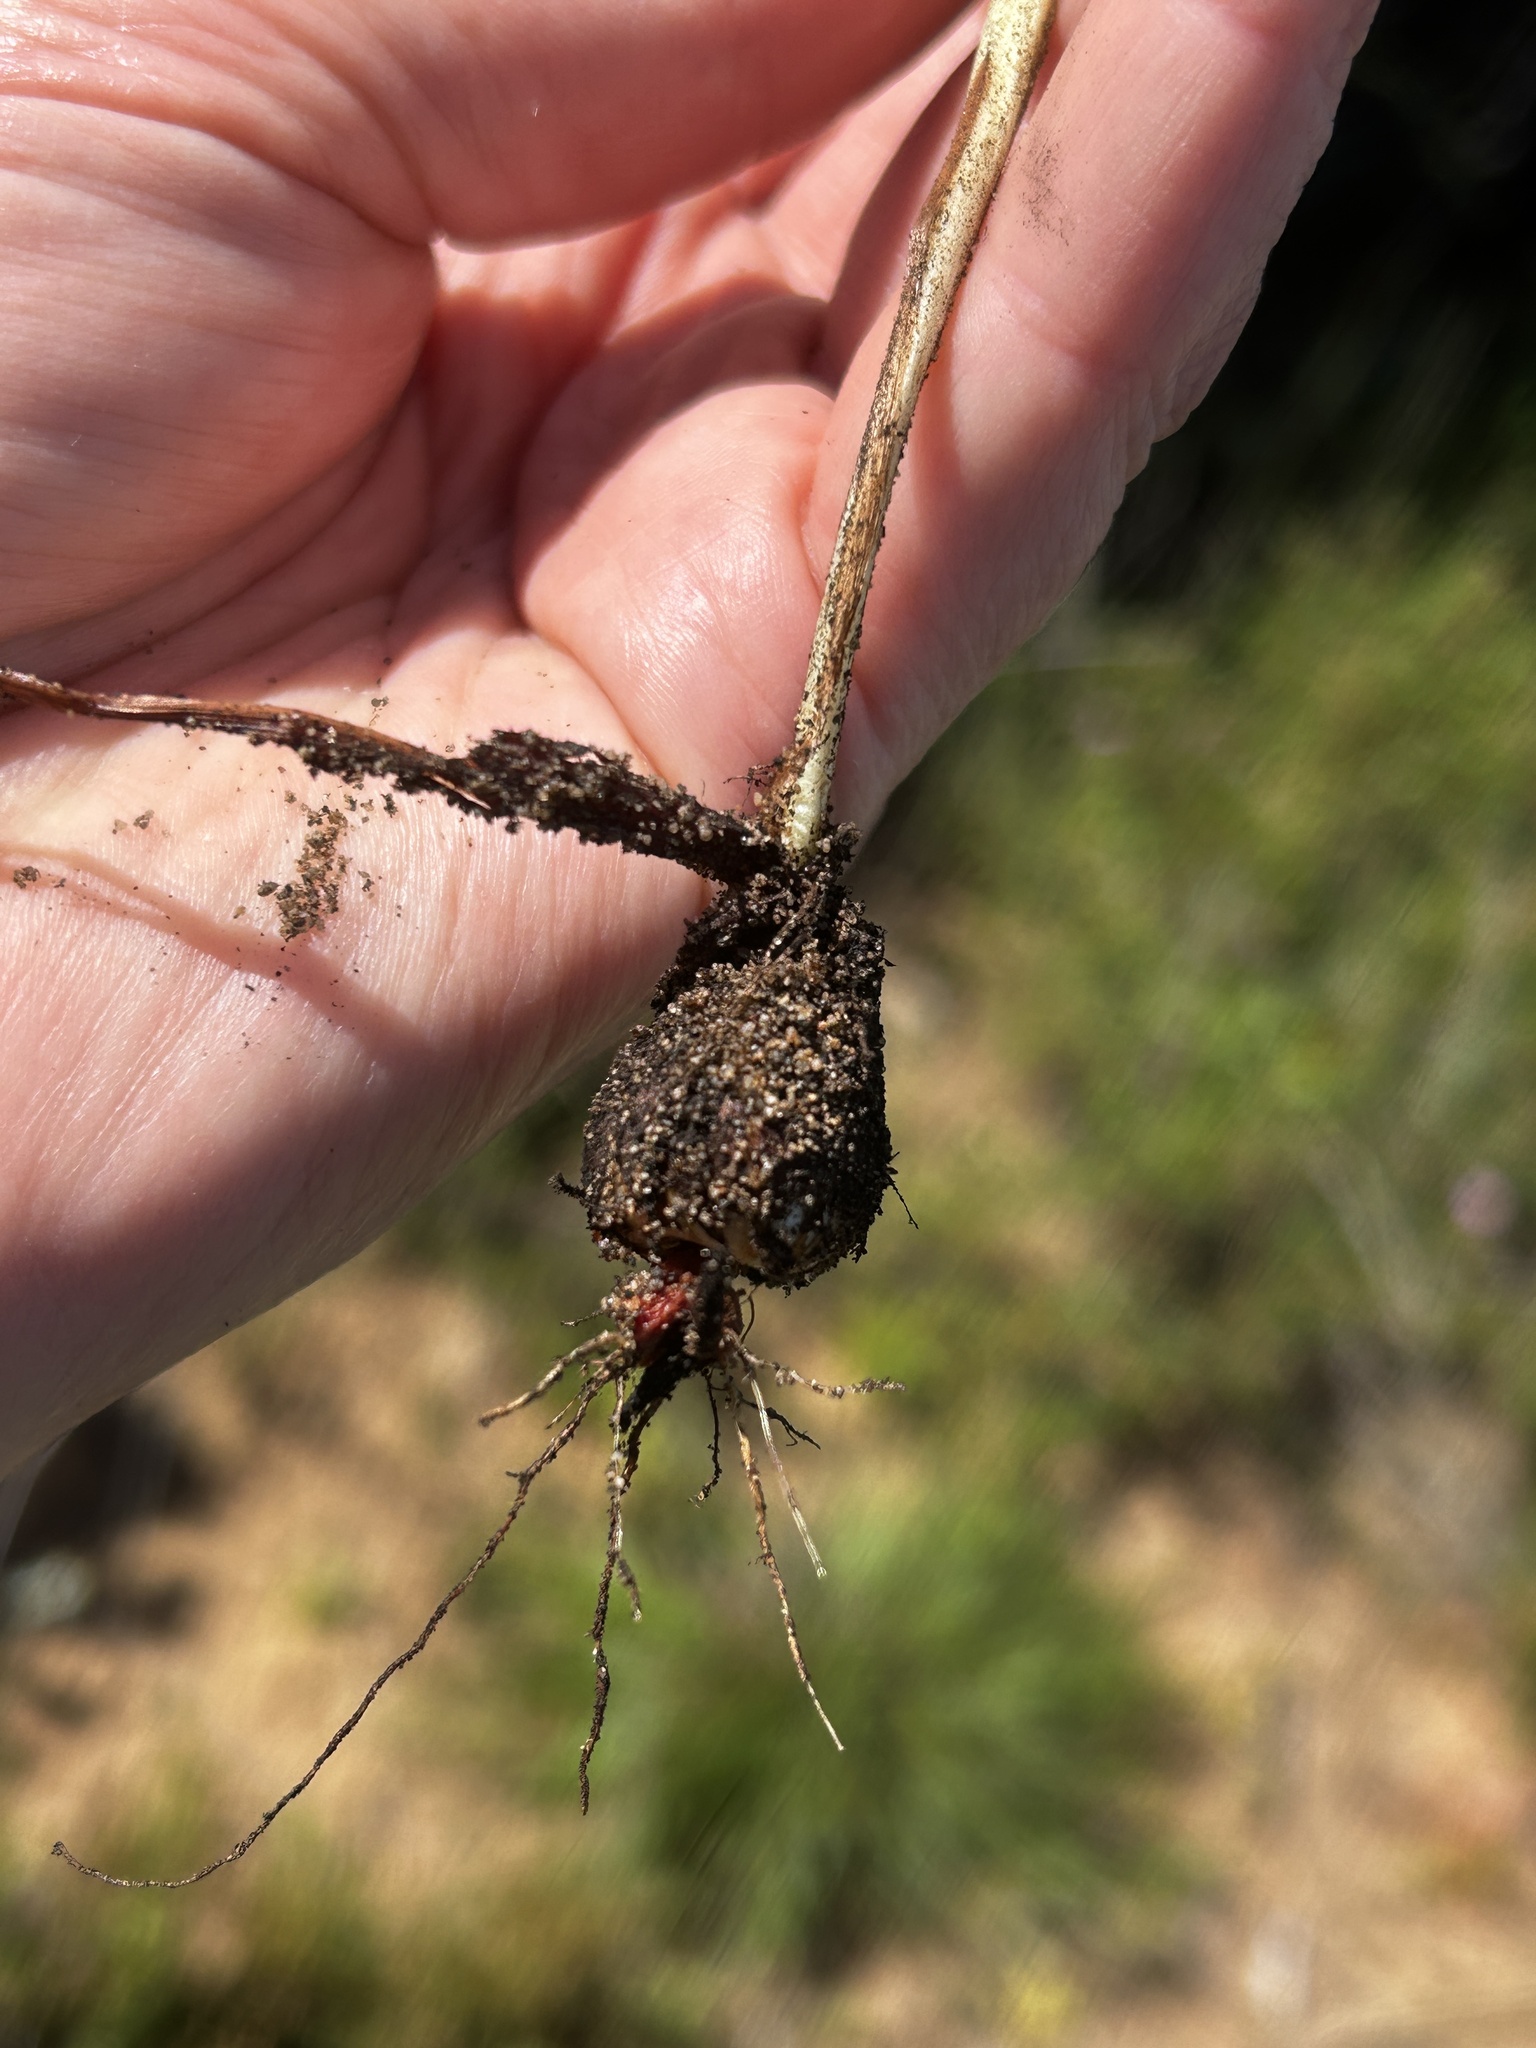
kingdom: Plantae
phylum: Tracheophyta
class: Liliopsida
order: Asparagales
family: Iridaceae
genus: Babiana
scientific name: Babiana tubiflora
